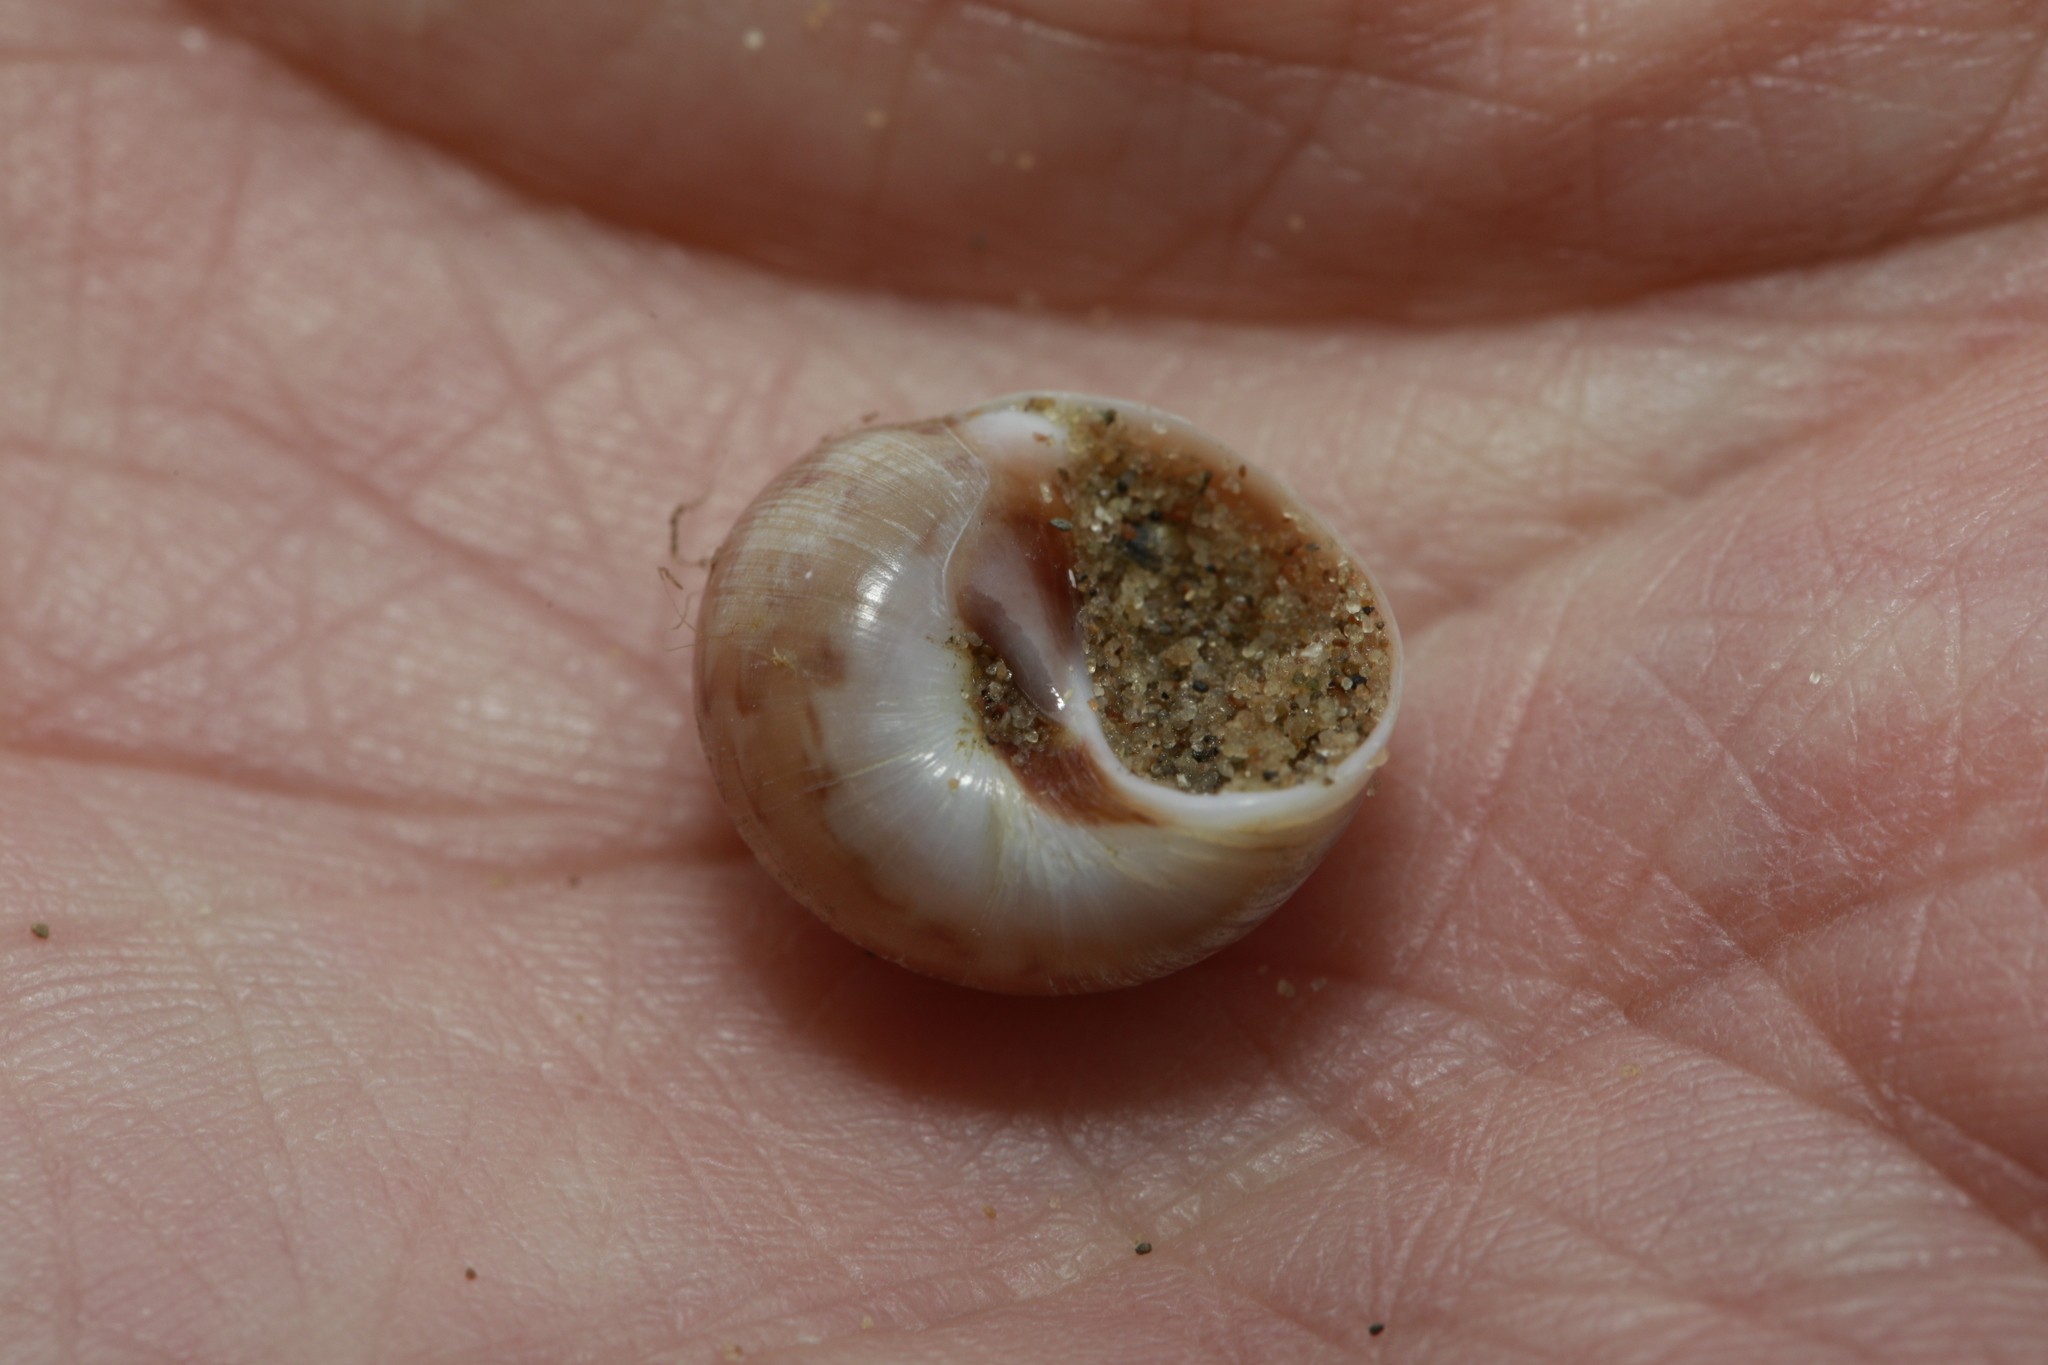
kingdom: Animalia
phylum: Mollusca
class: Gastropoda
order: Littorinimorpha
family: Naticidae
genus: Euspira
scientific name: Euspira nitida
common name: Alder's necklace shell
